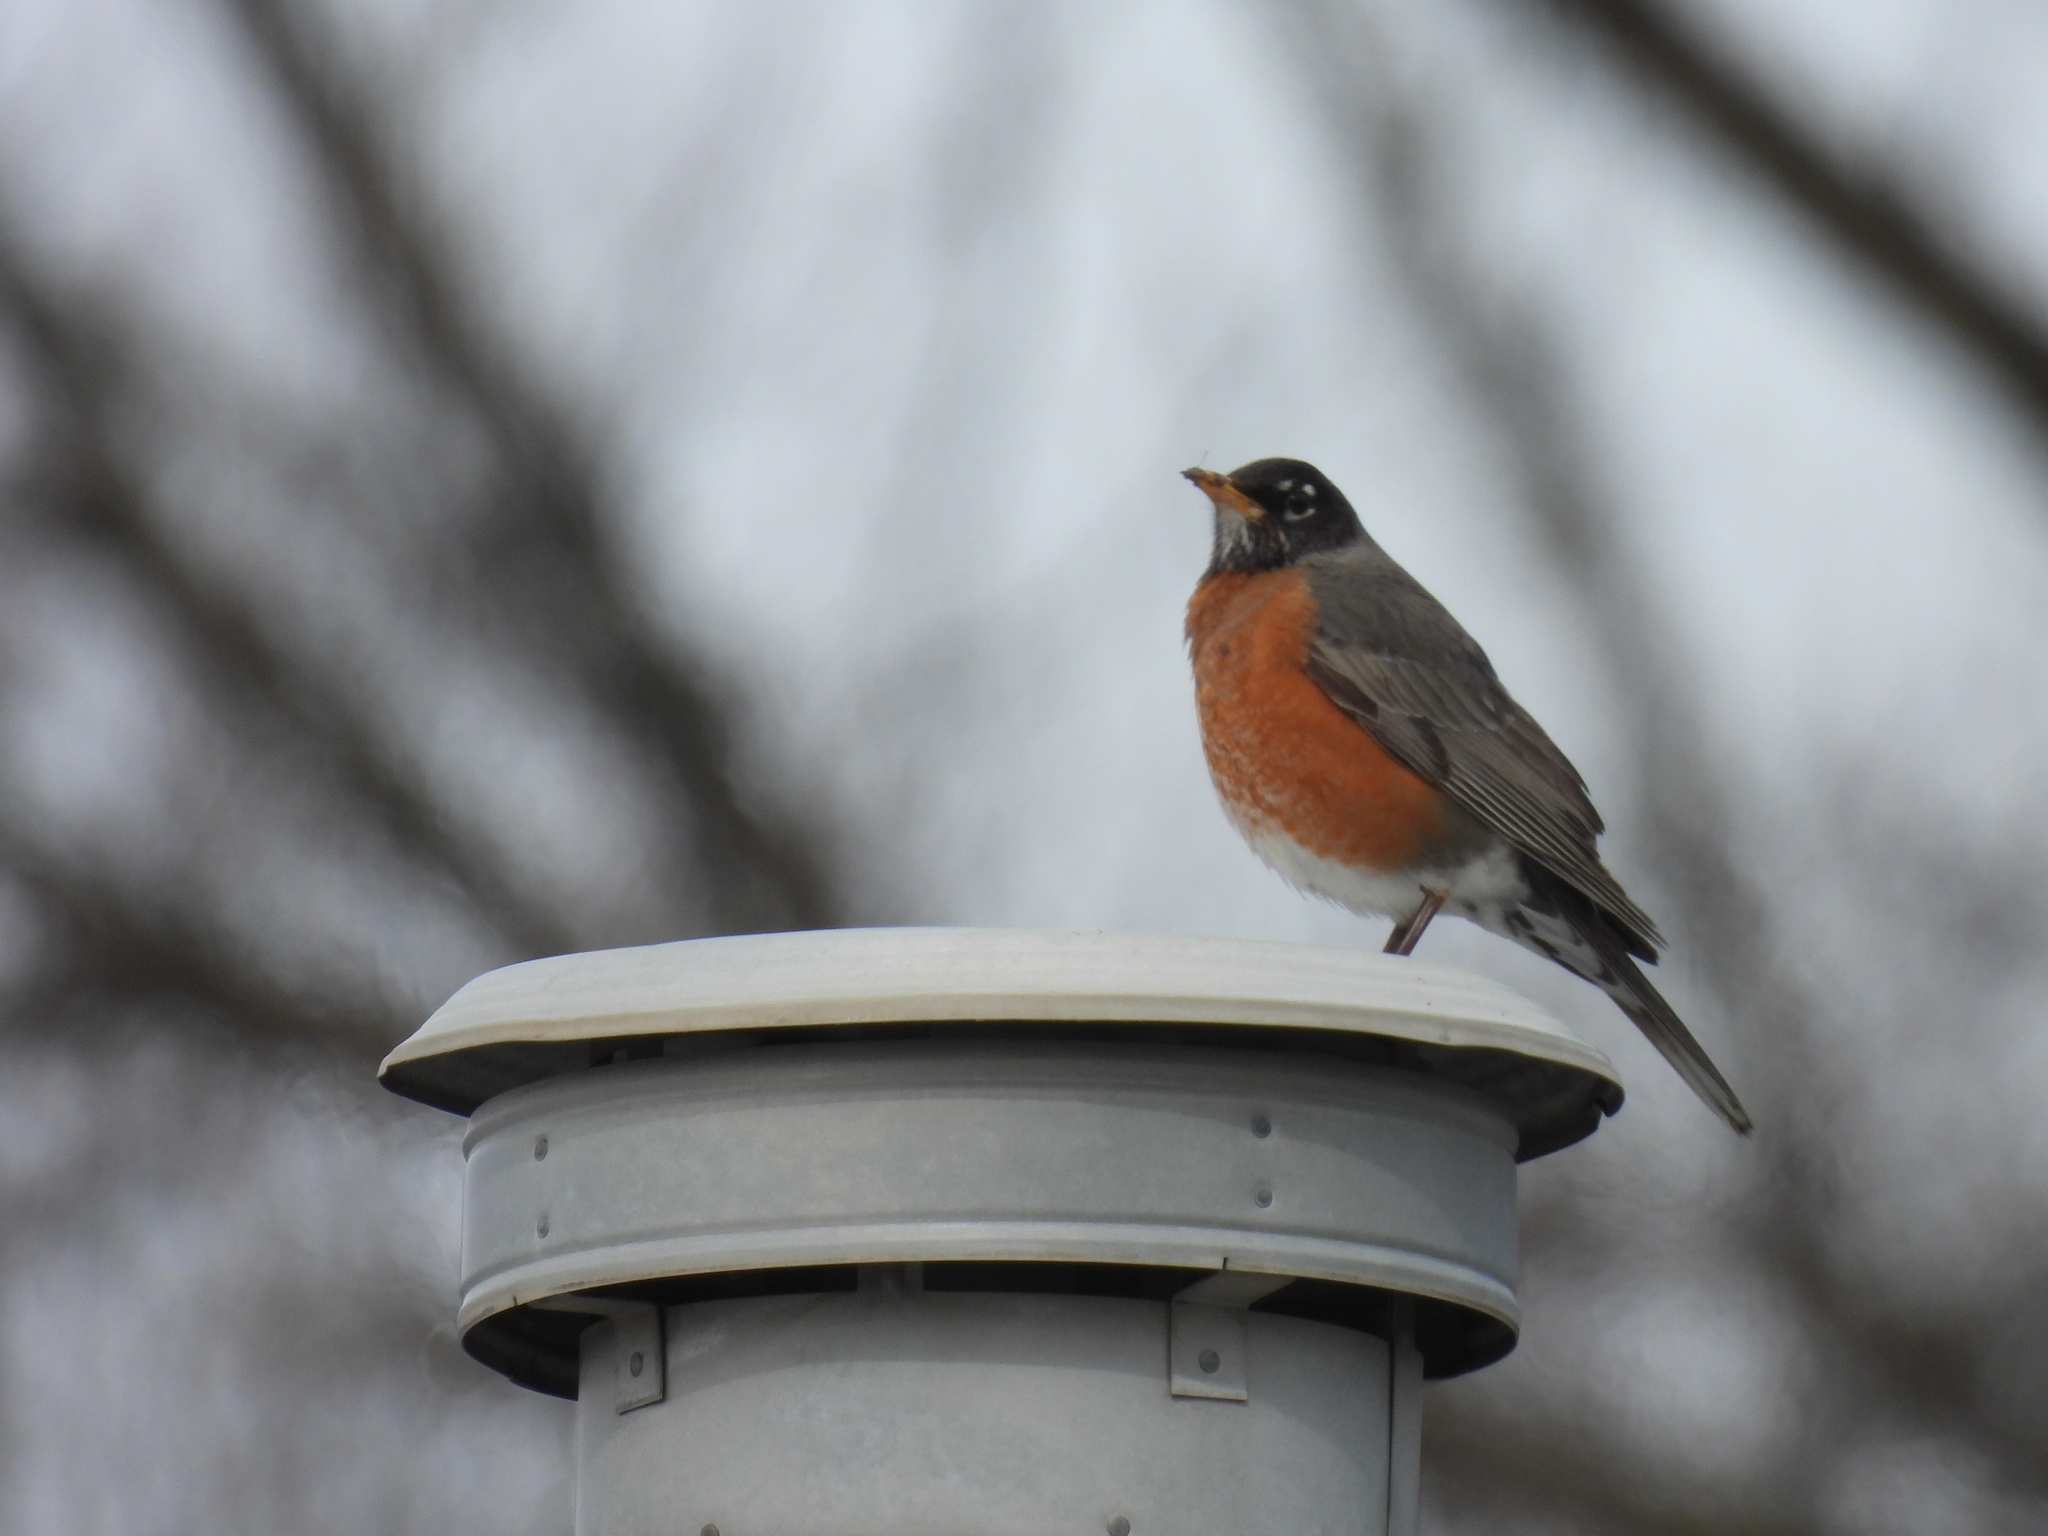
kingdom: Animalia
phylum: Chordata
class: Aves
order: Passeriformes
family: Turdidae
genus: Turdus
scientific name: Turdus migratorius
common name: American robin
